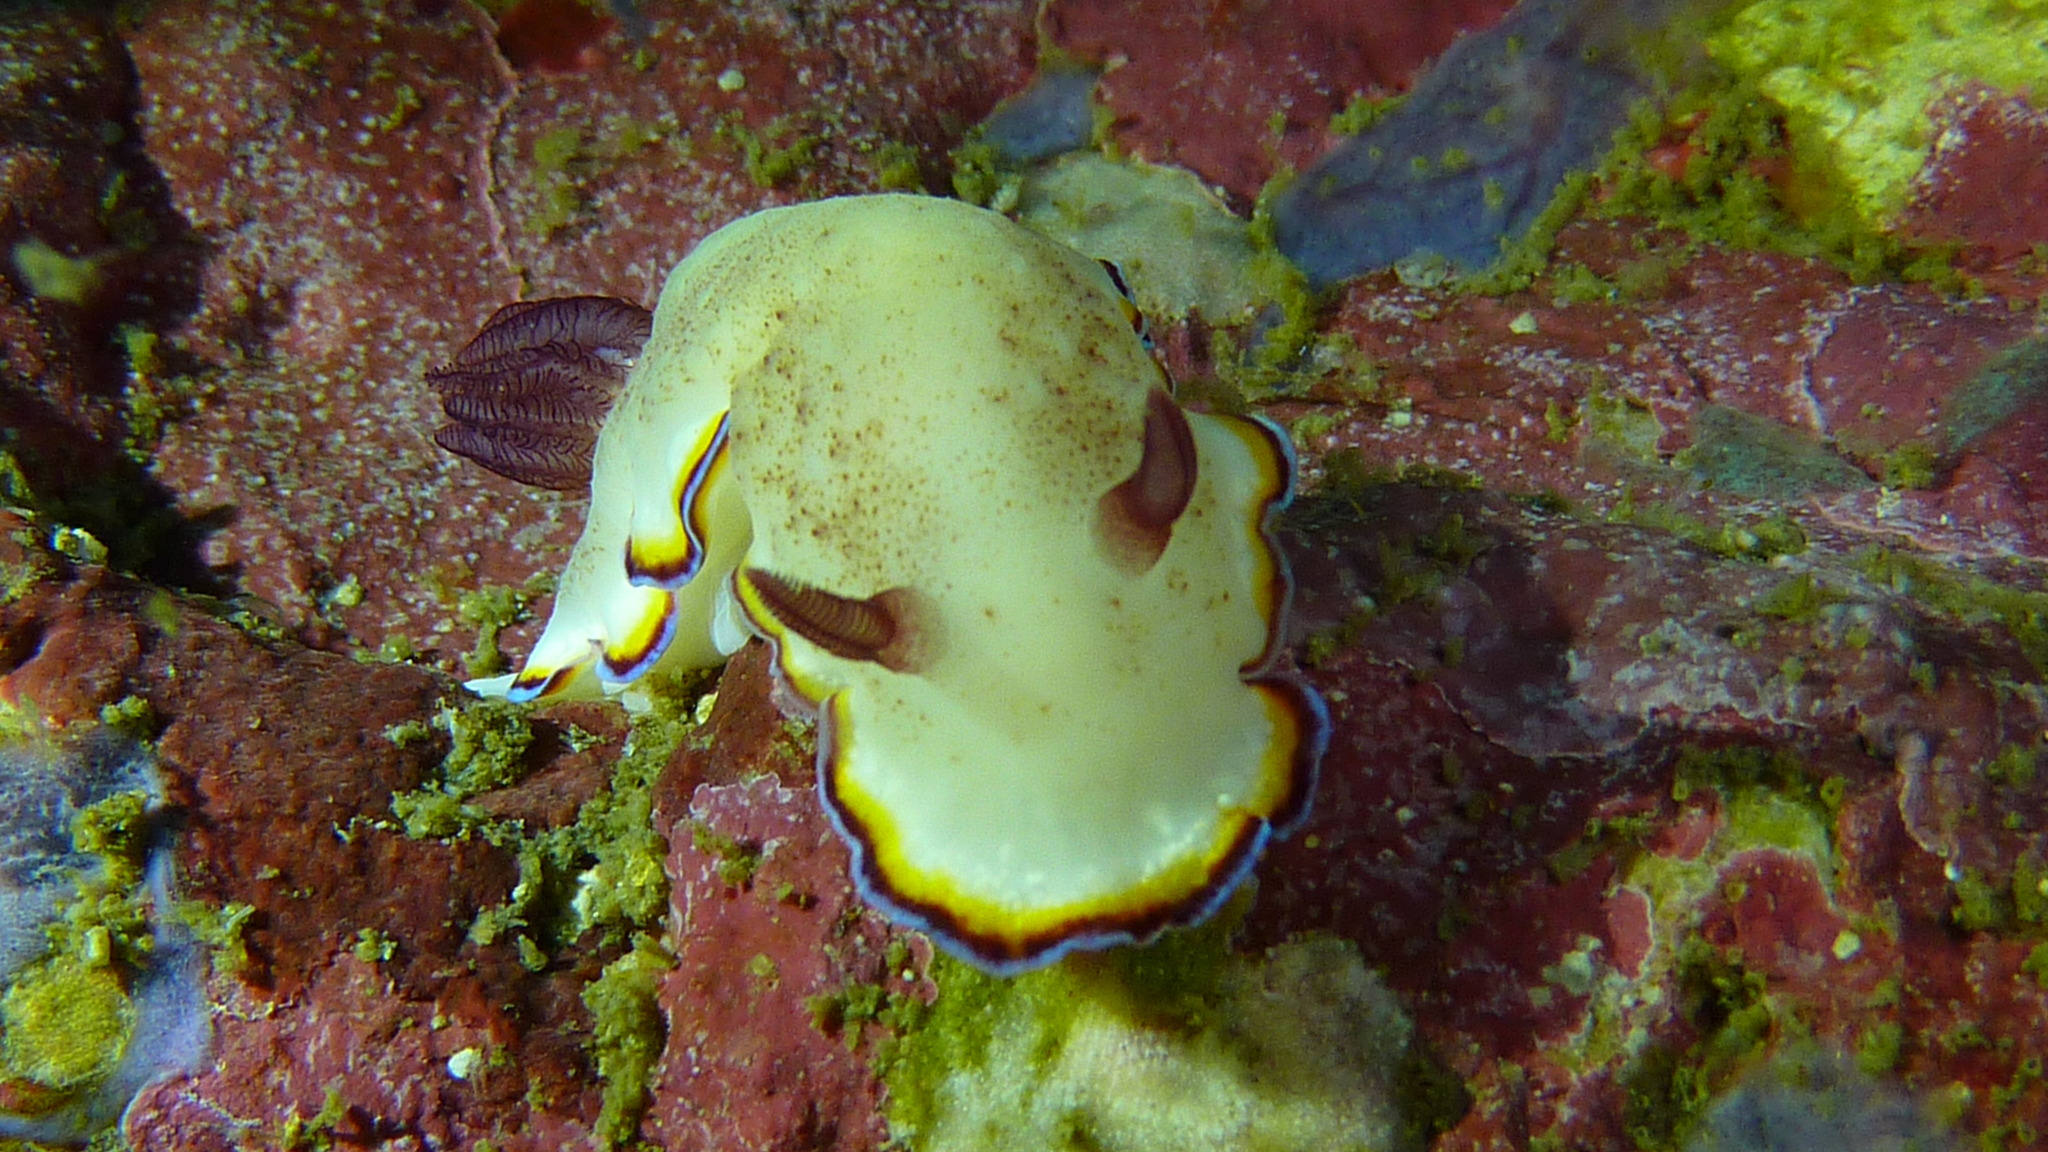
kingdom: Animalia
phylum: Mollusca
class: Gastropoda
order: Nudibranchia
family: Chromodorididae
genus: Goniobranchus
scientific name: Goniobranchus sinensis
